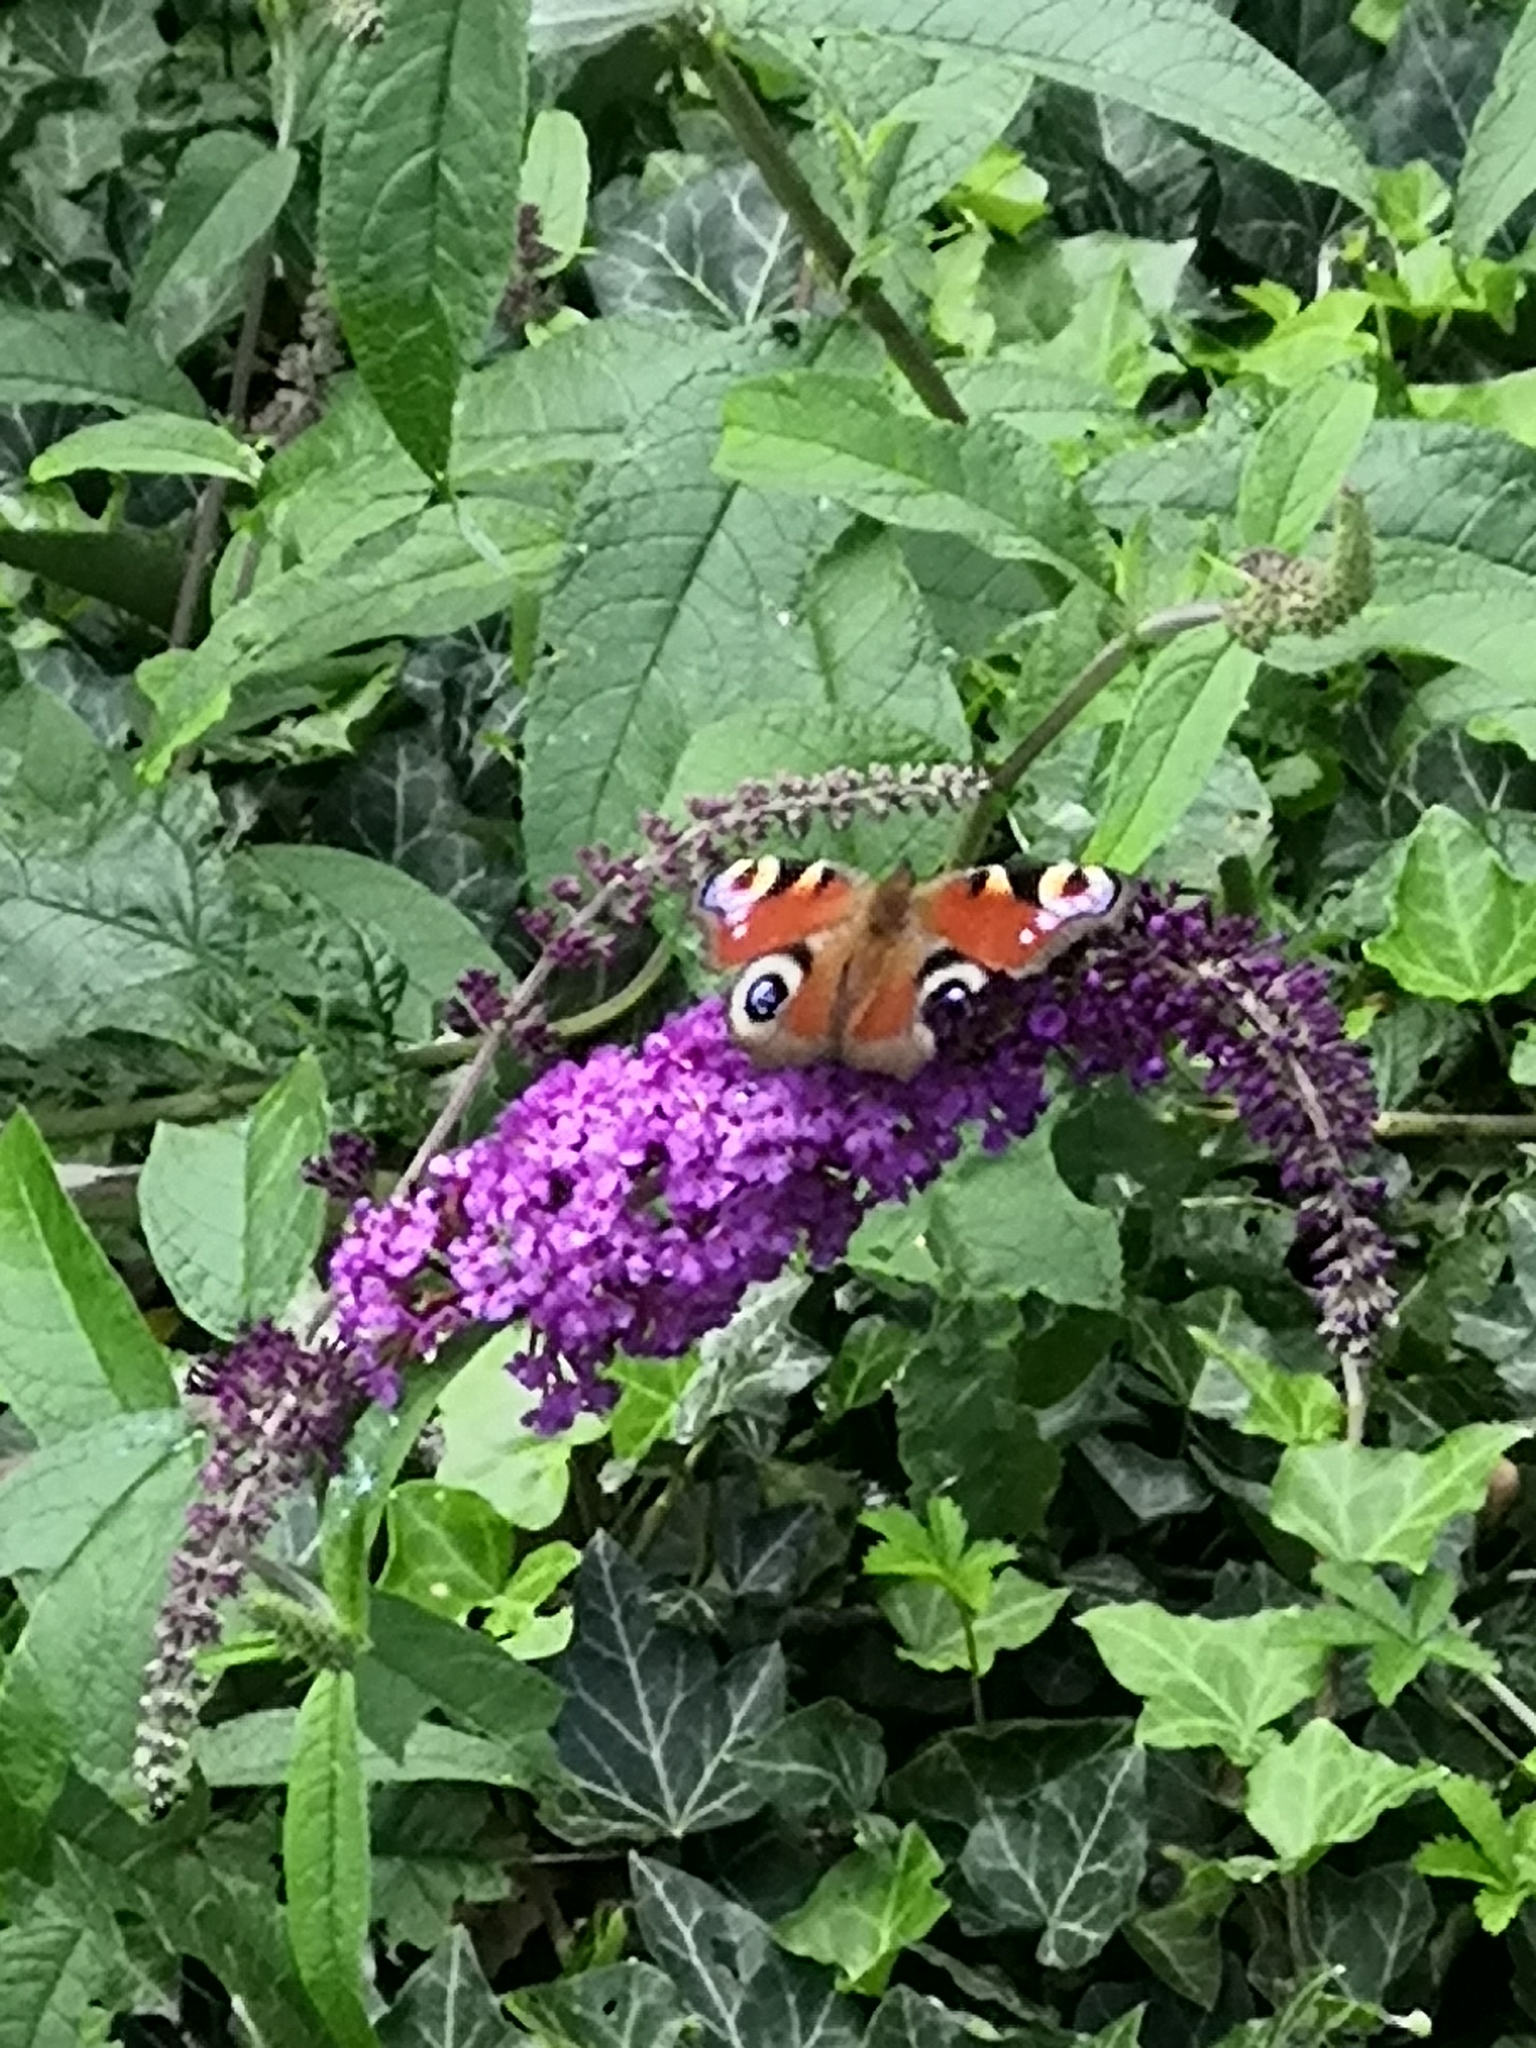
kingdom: Animalia
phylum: Arthropoda
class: Insecta
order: Lepidoptera
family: Nymphalidae
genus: Aglais
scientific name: Aglais io
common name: Peacock
